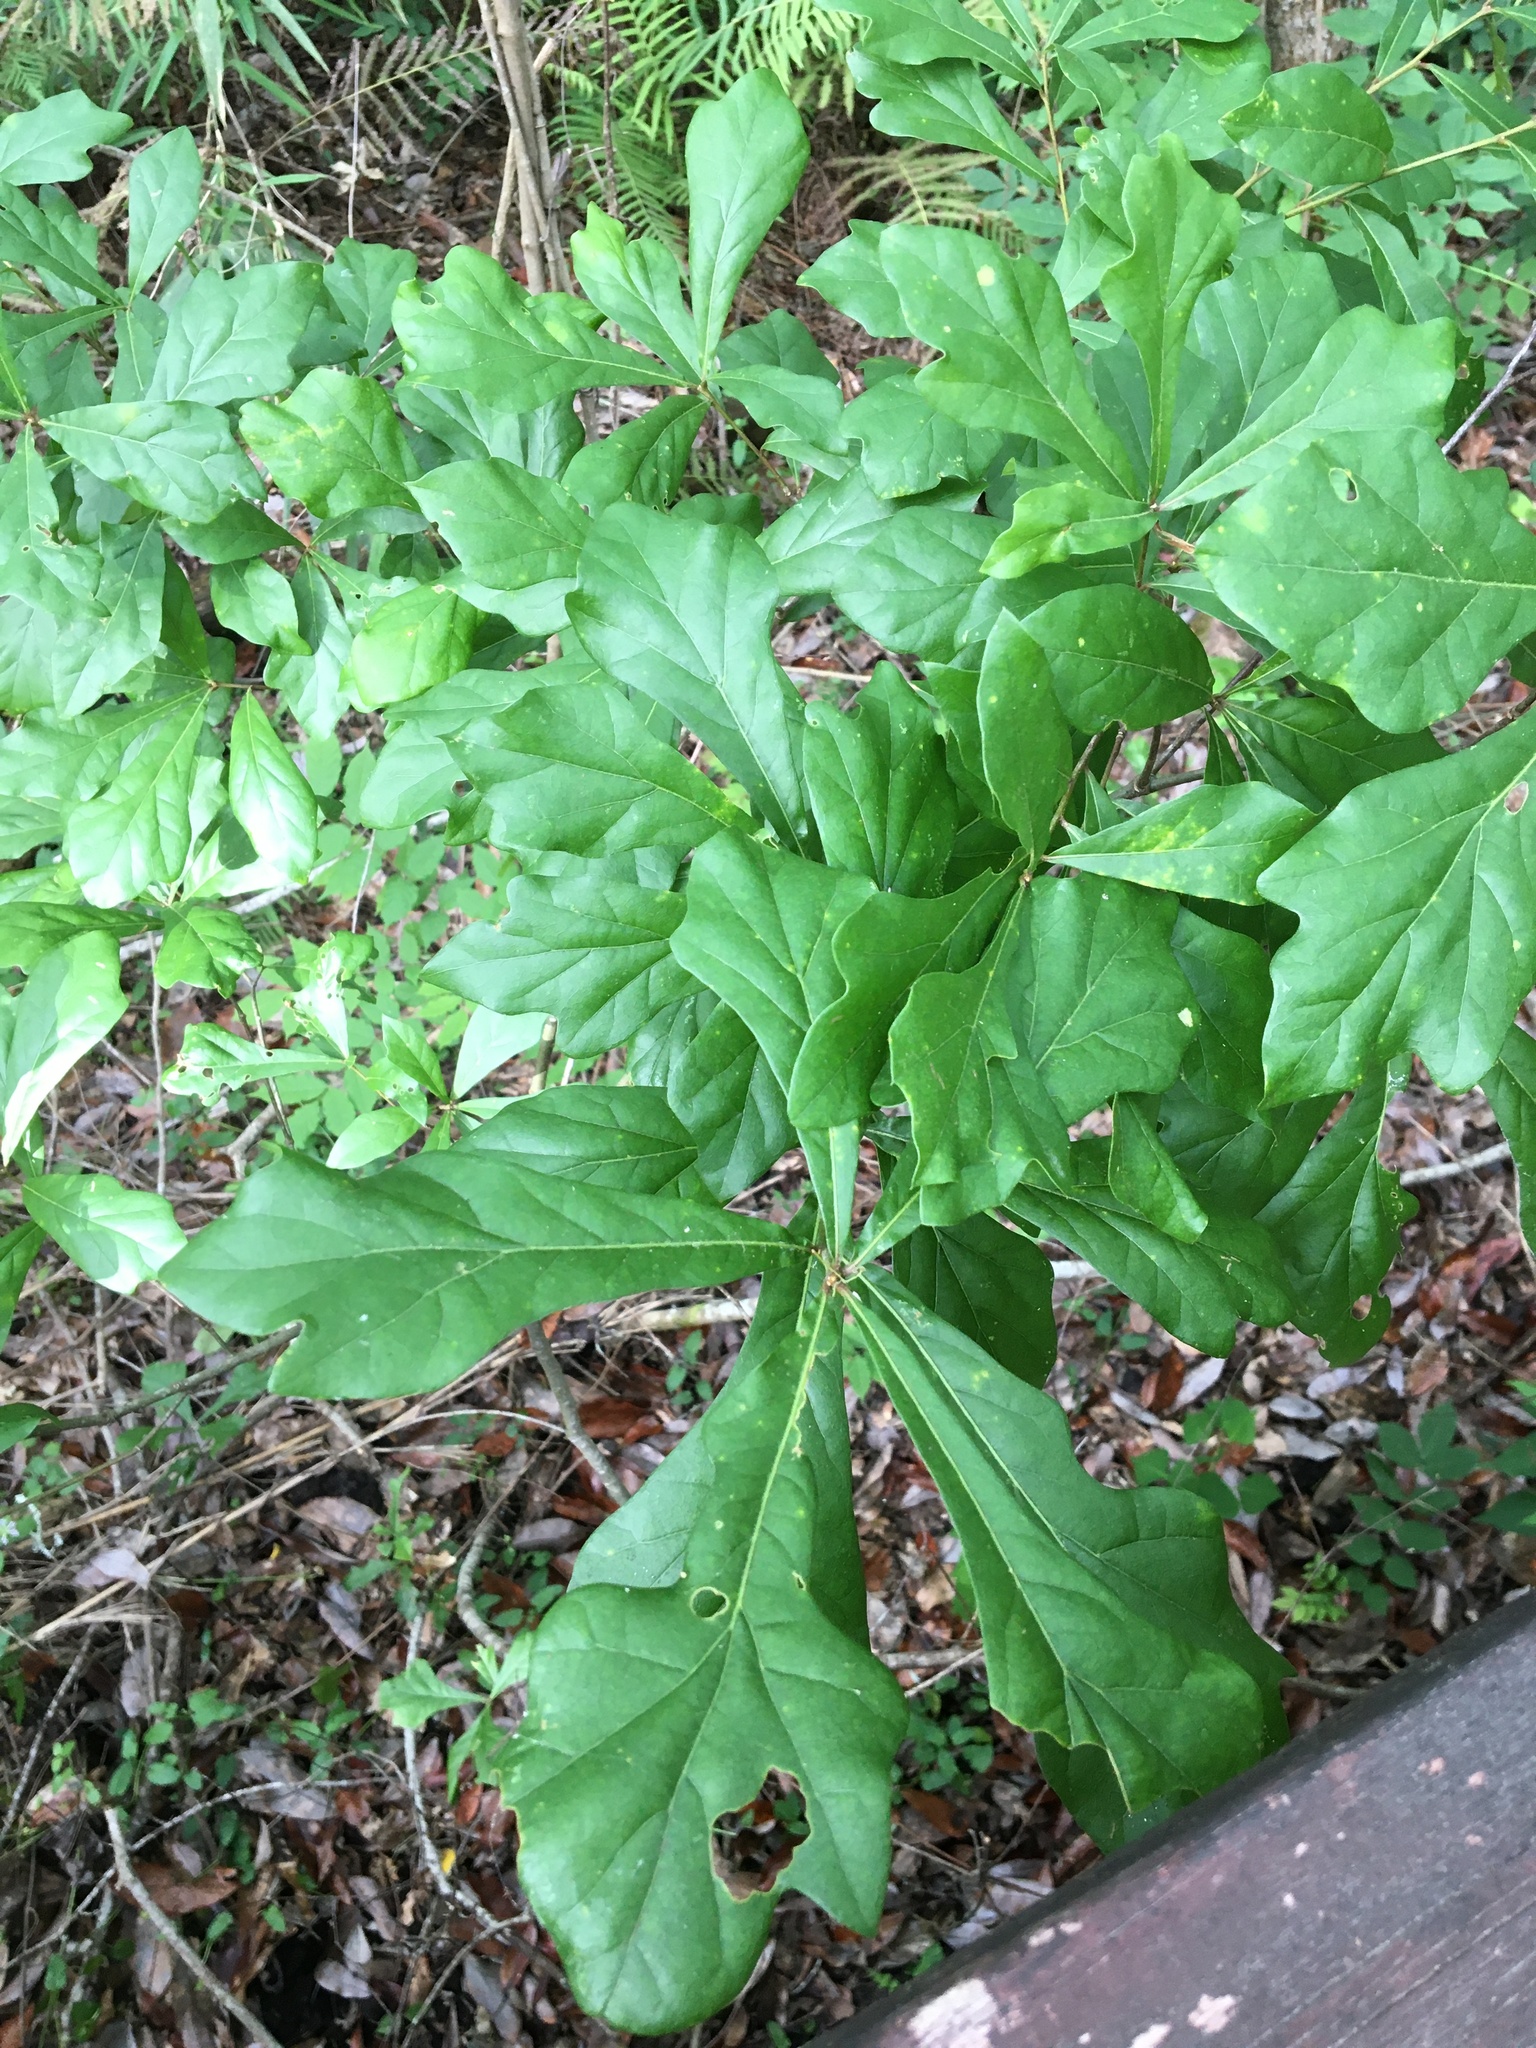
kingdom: Plantae
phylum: Tracheophyta
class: Magnoliopsida
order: Fagales
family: Fagaceae
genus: Quercus
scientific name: Quercus nigra
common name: Water oak
